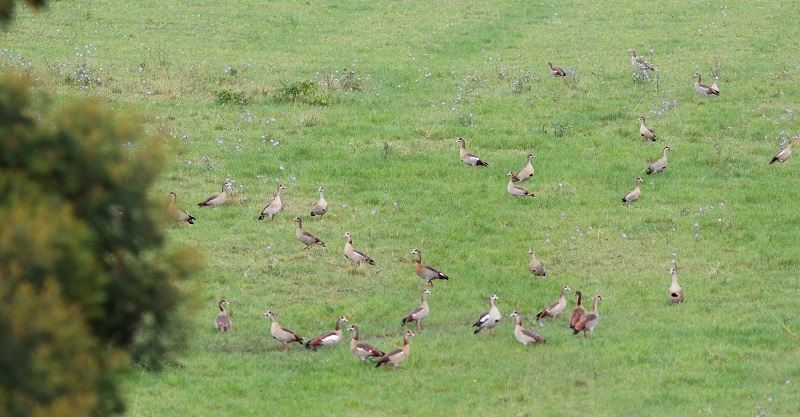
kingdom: Animalia
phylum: Chordata
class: Aves
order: Anseriformes
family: Anatidae
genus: Alopochen
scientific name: Alopochen aegyptiaca
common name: Egyptian goose
